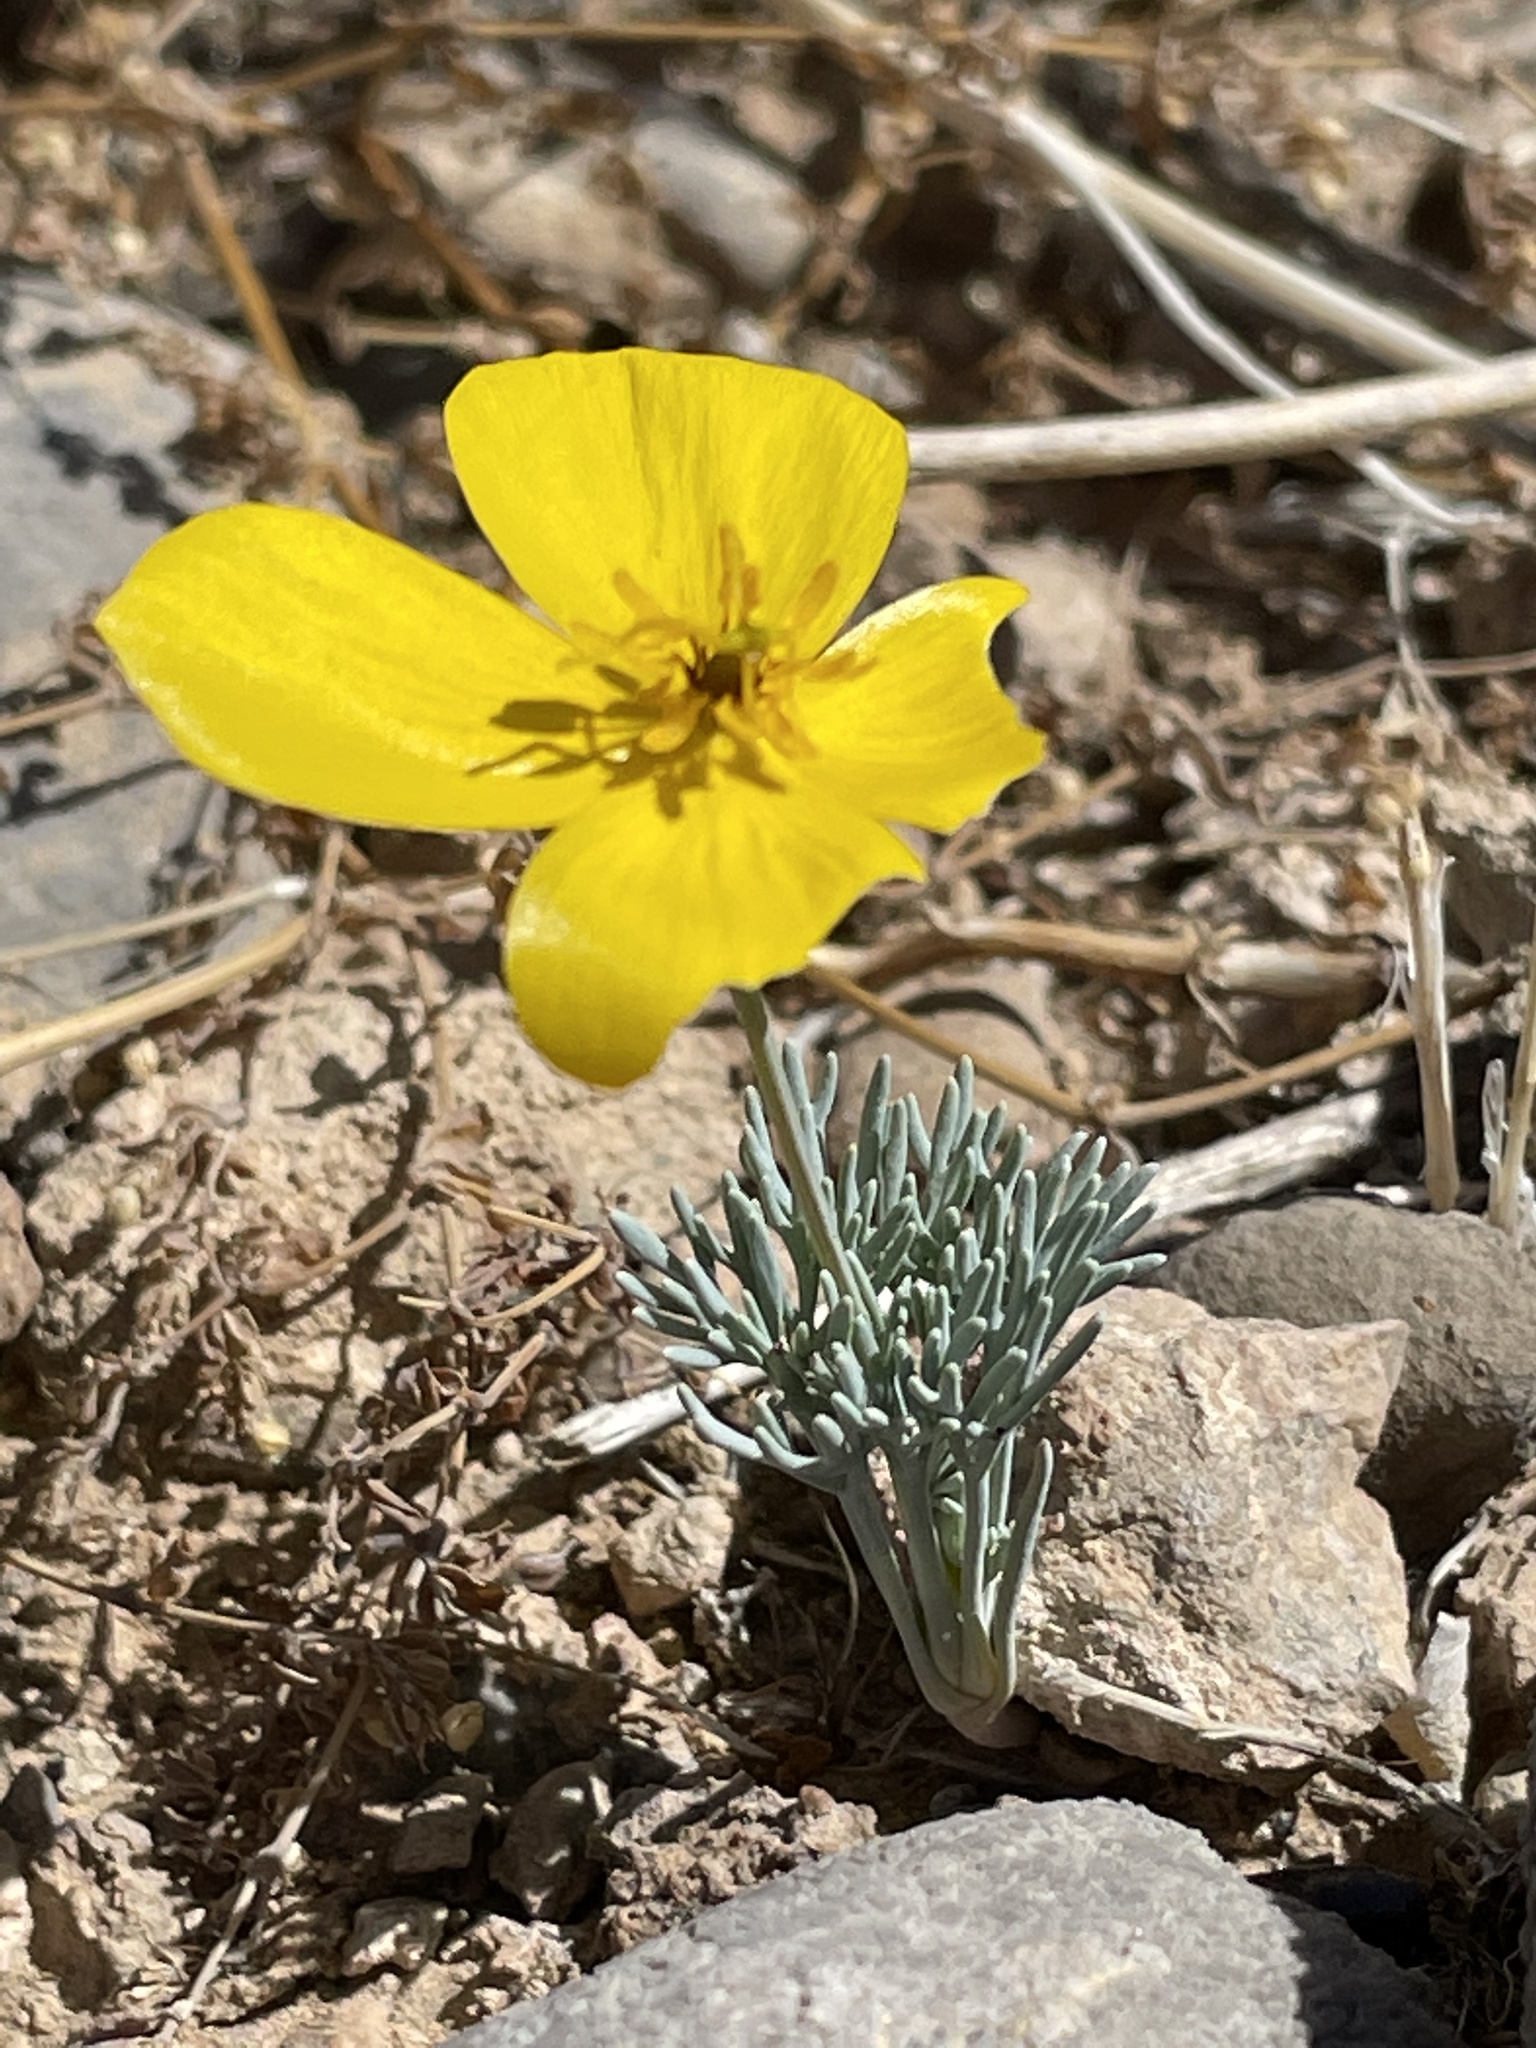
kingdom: Plantae
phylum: Tracheophyta
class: Magnoliopsida
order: Ranunculales
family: Papaveraceae
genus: Eschscholzia
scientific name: Eschscholzia glyptosperma
